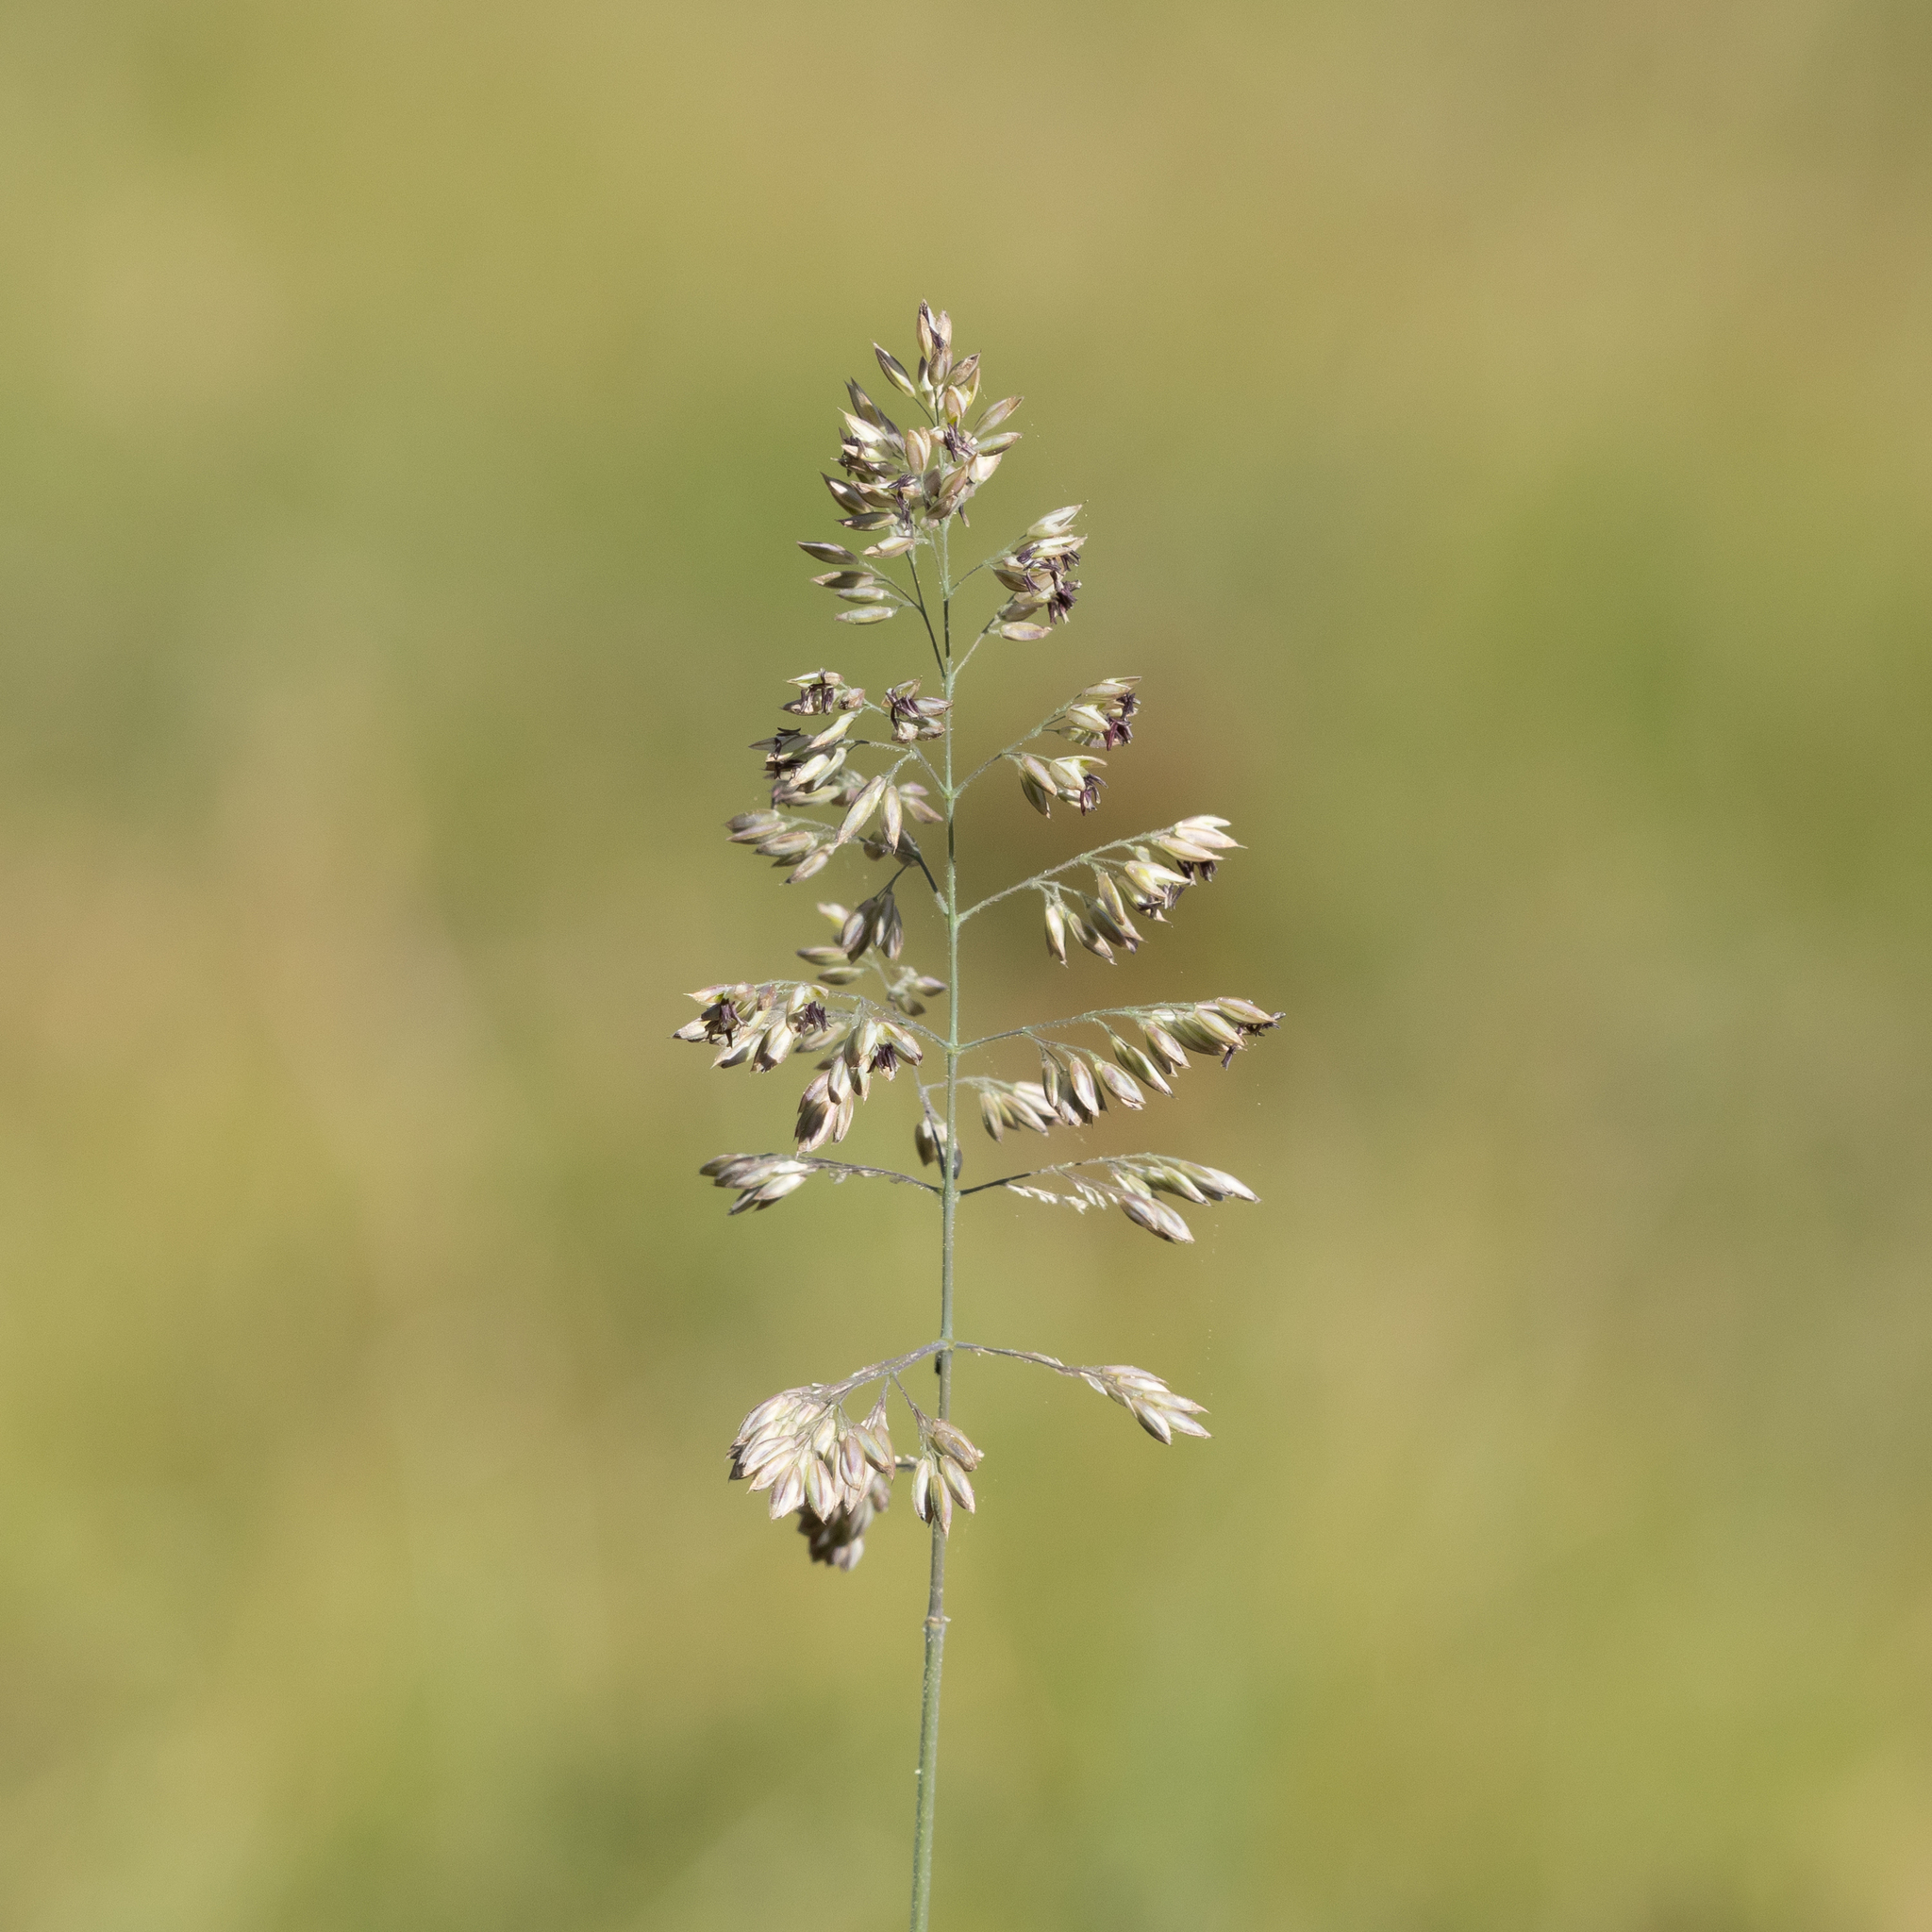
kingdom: Plantae
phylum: Tracheophyta
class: Liliopsida
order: Poales
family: Poaceae
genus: Holcus
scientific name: Holcus lanatus
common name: Yorkshire-fog
